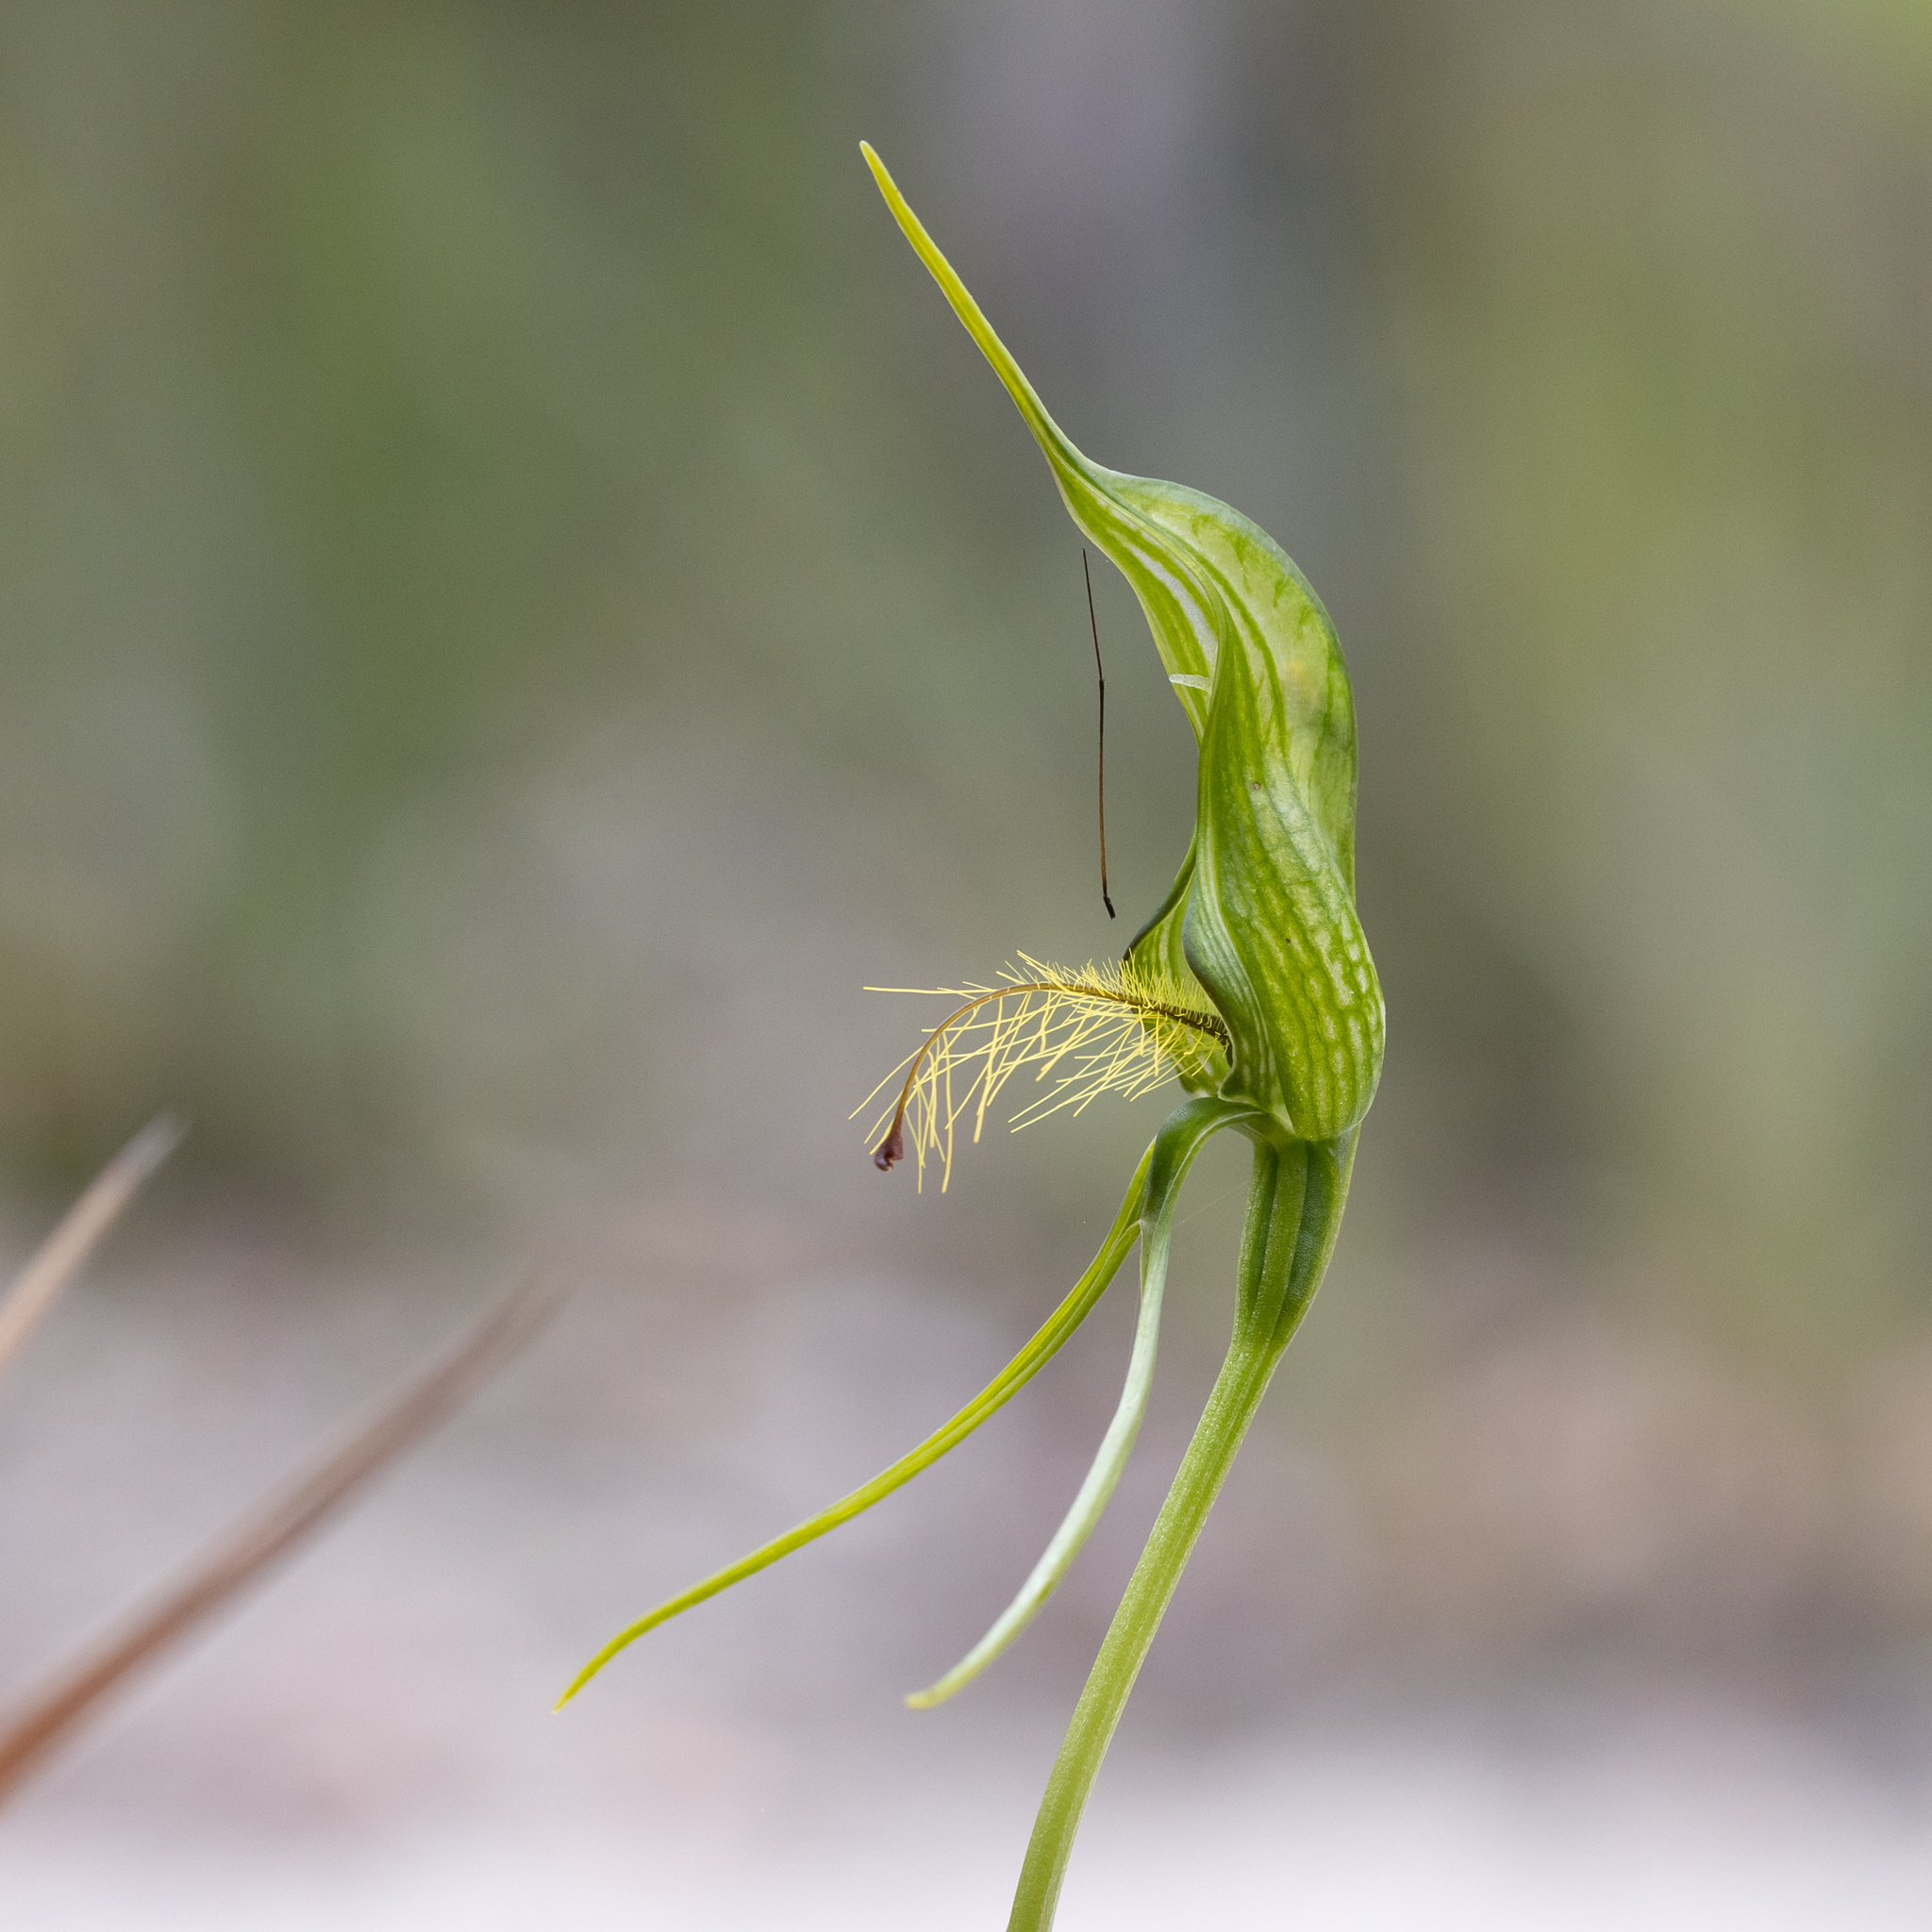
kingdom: Plantae
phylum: Tracheophyta
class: Liliopsida
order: Asparagales
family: Orchidaceae
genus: Pterostylis
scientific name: Pterostylis turfosa
